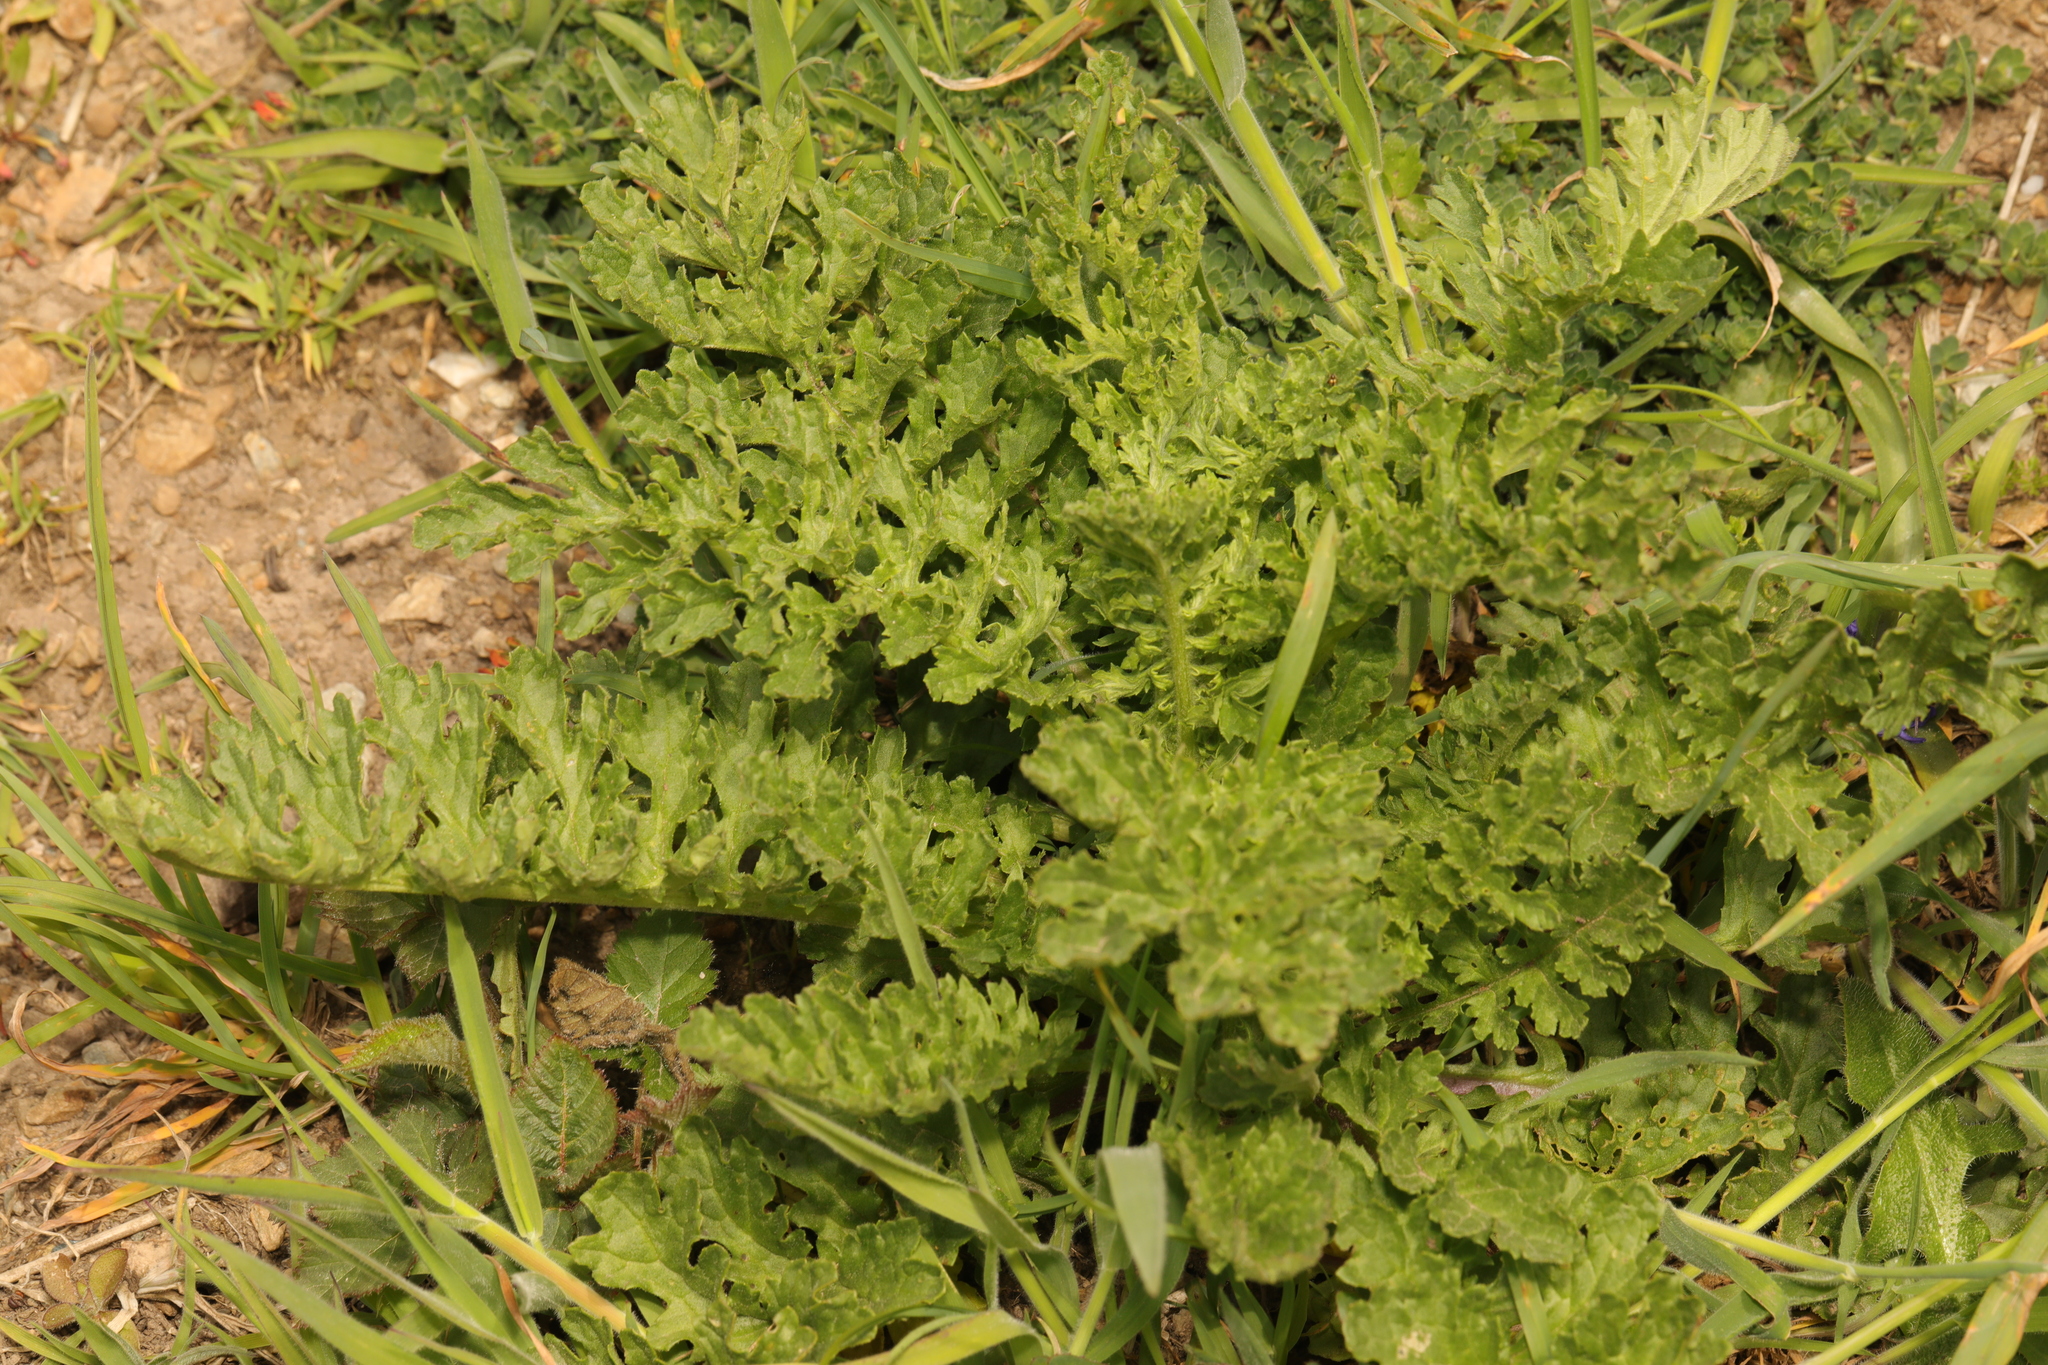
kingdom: Plantae
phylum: Tracheophyta
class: Magnoliopsida
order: Asterales
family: Asteraceae
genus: Jacobaea
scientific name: Jacobaea vulgaris
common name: Stinking willie
